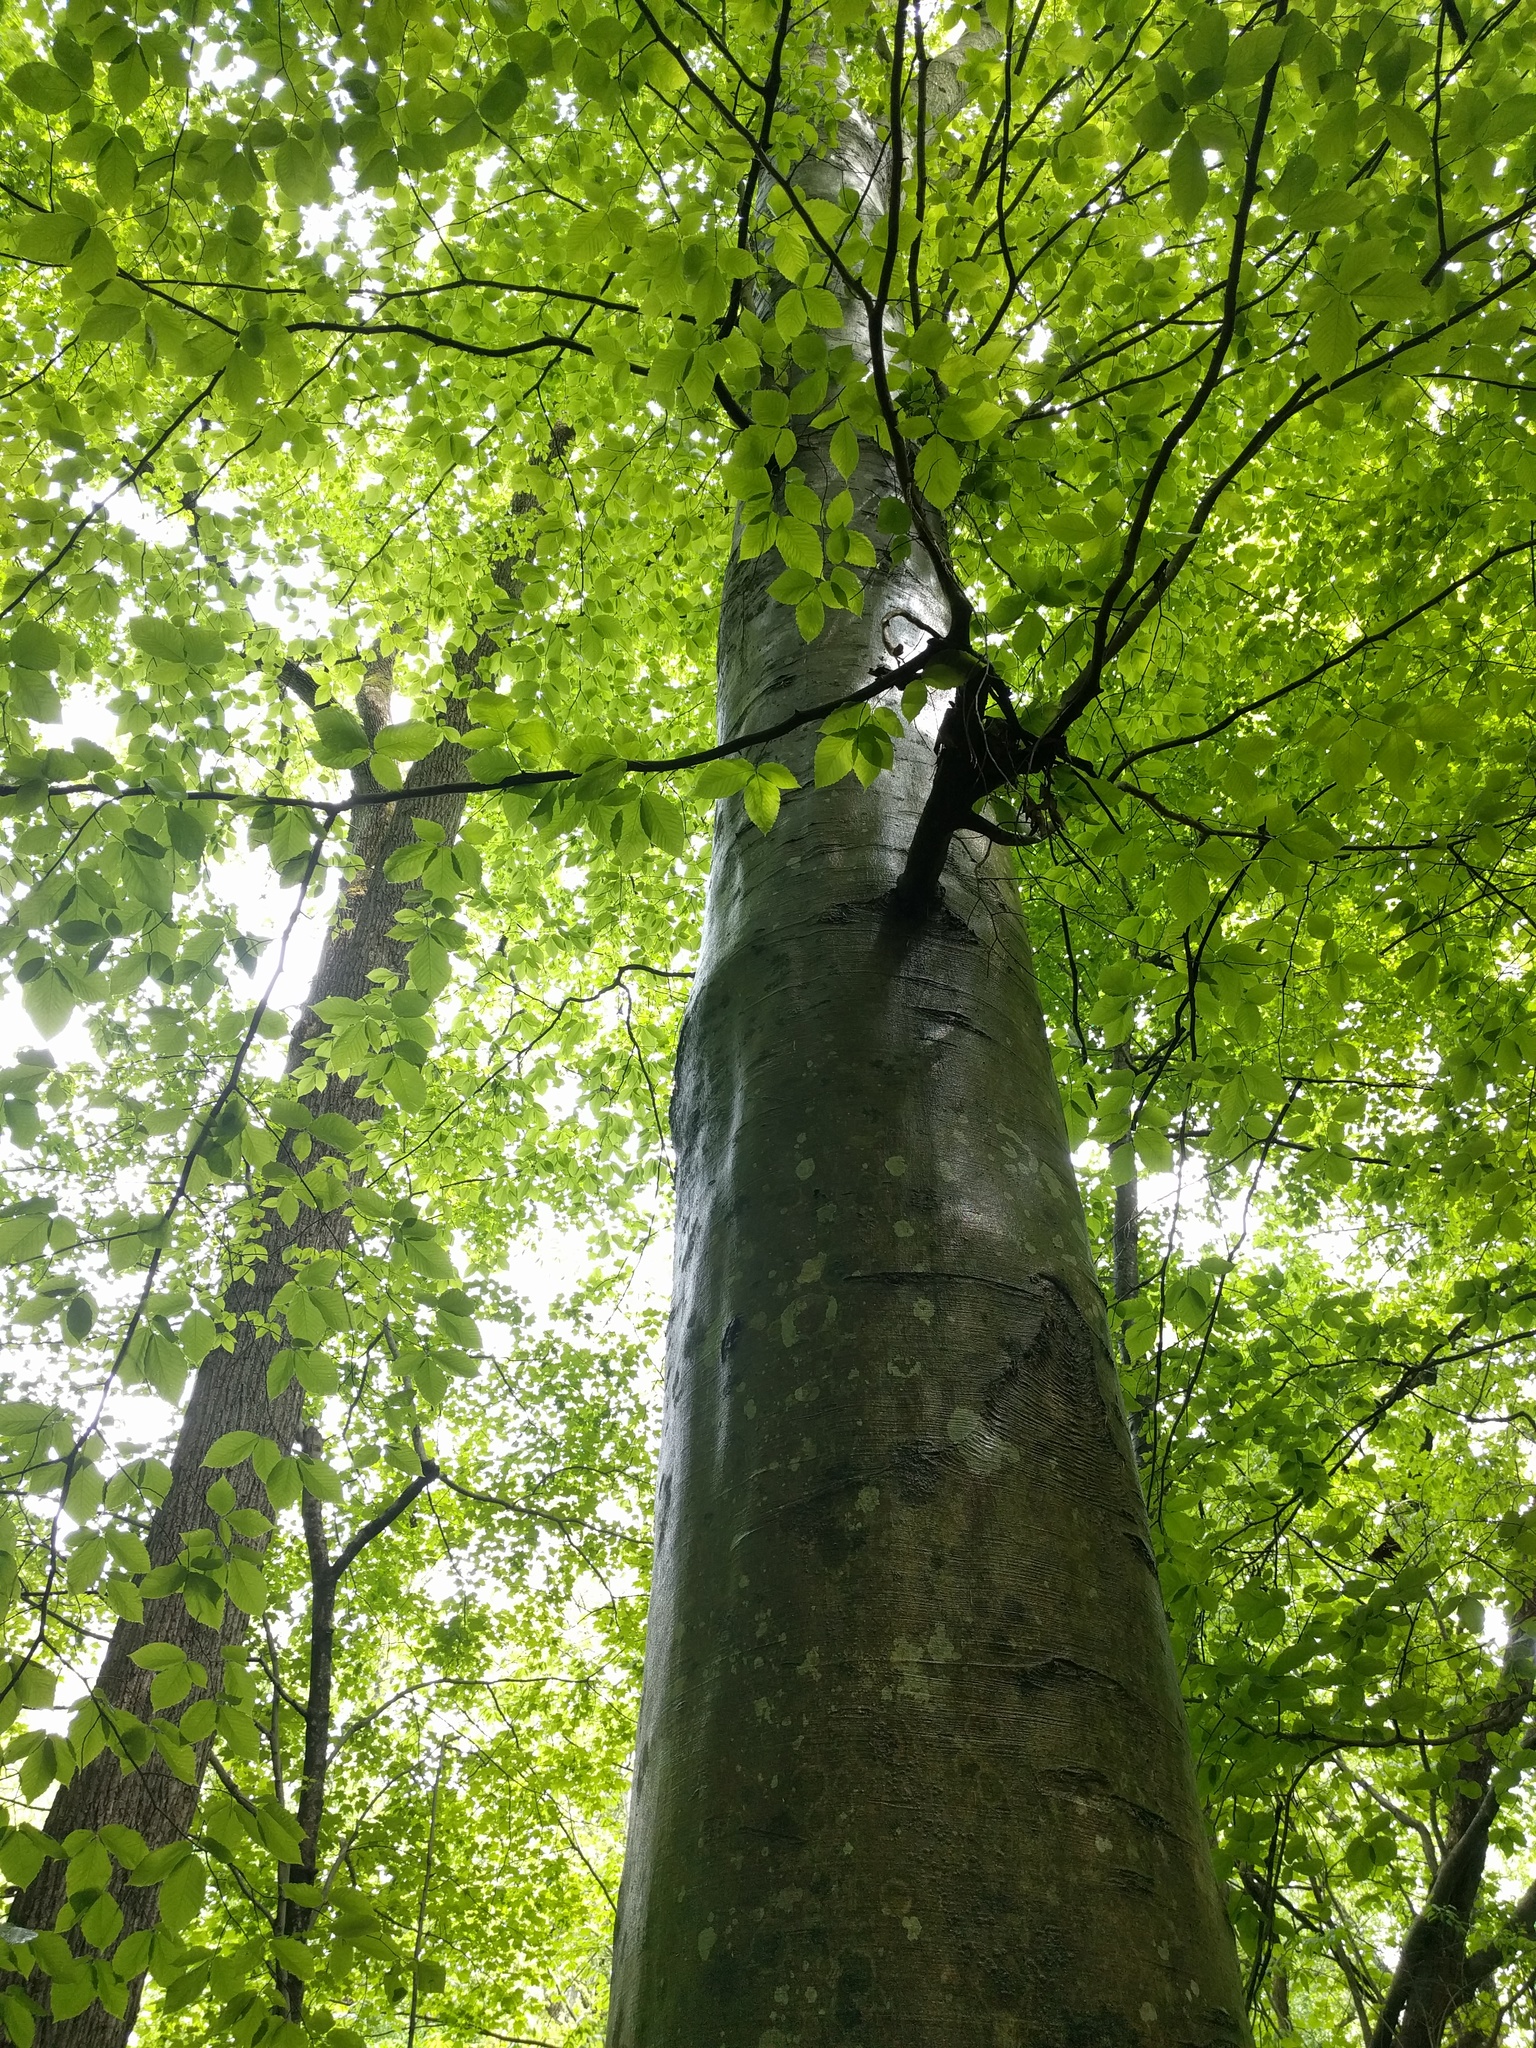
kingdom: Plantae
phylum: Tracheophyta
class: Magnoliopsida
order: Fagales
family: Fagaceae
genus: Fagus
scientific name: Fagus grandifolia
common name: American beech
